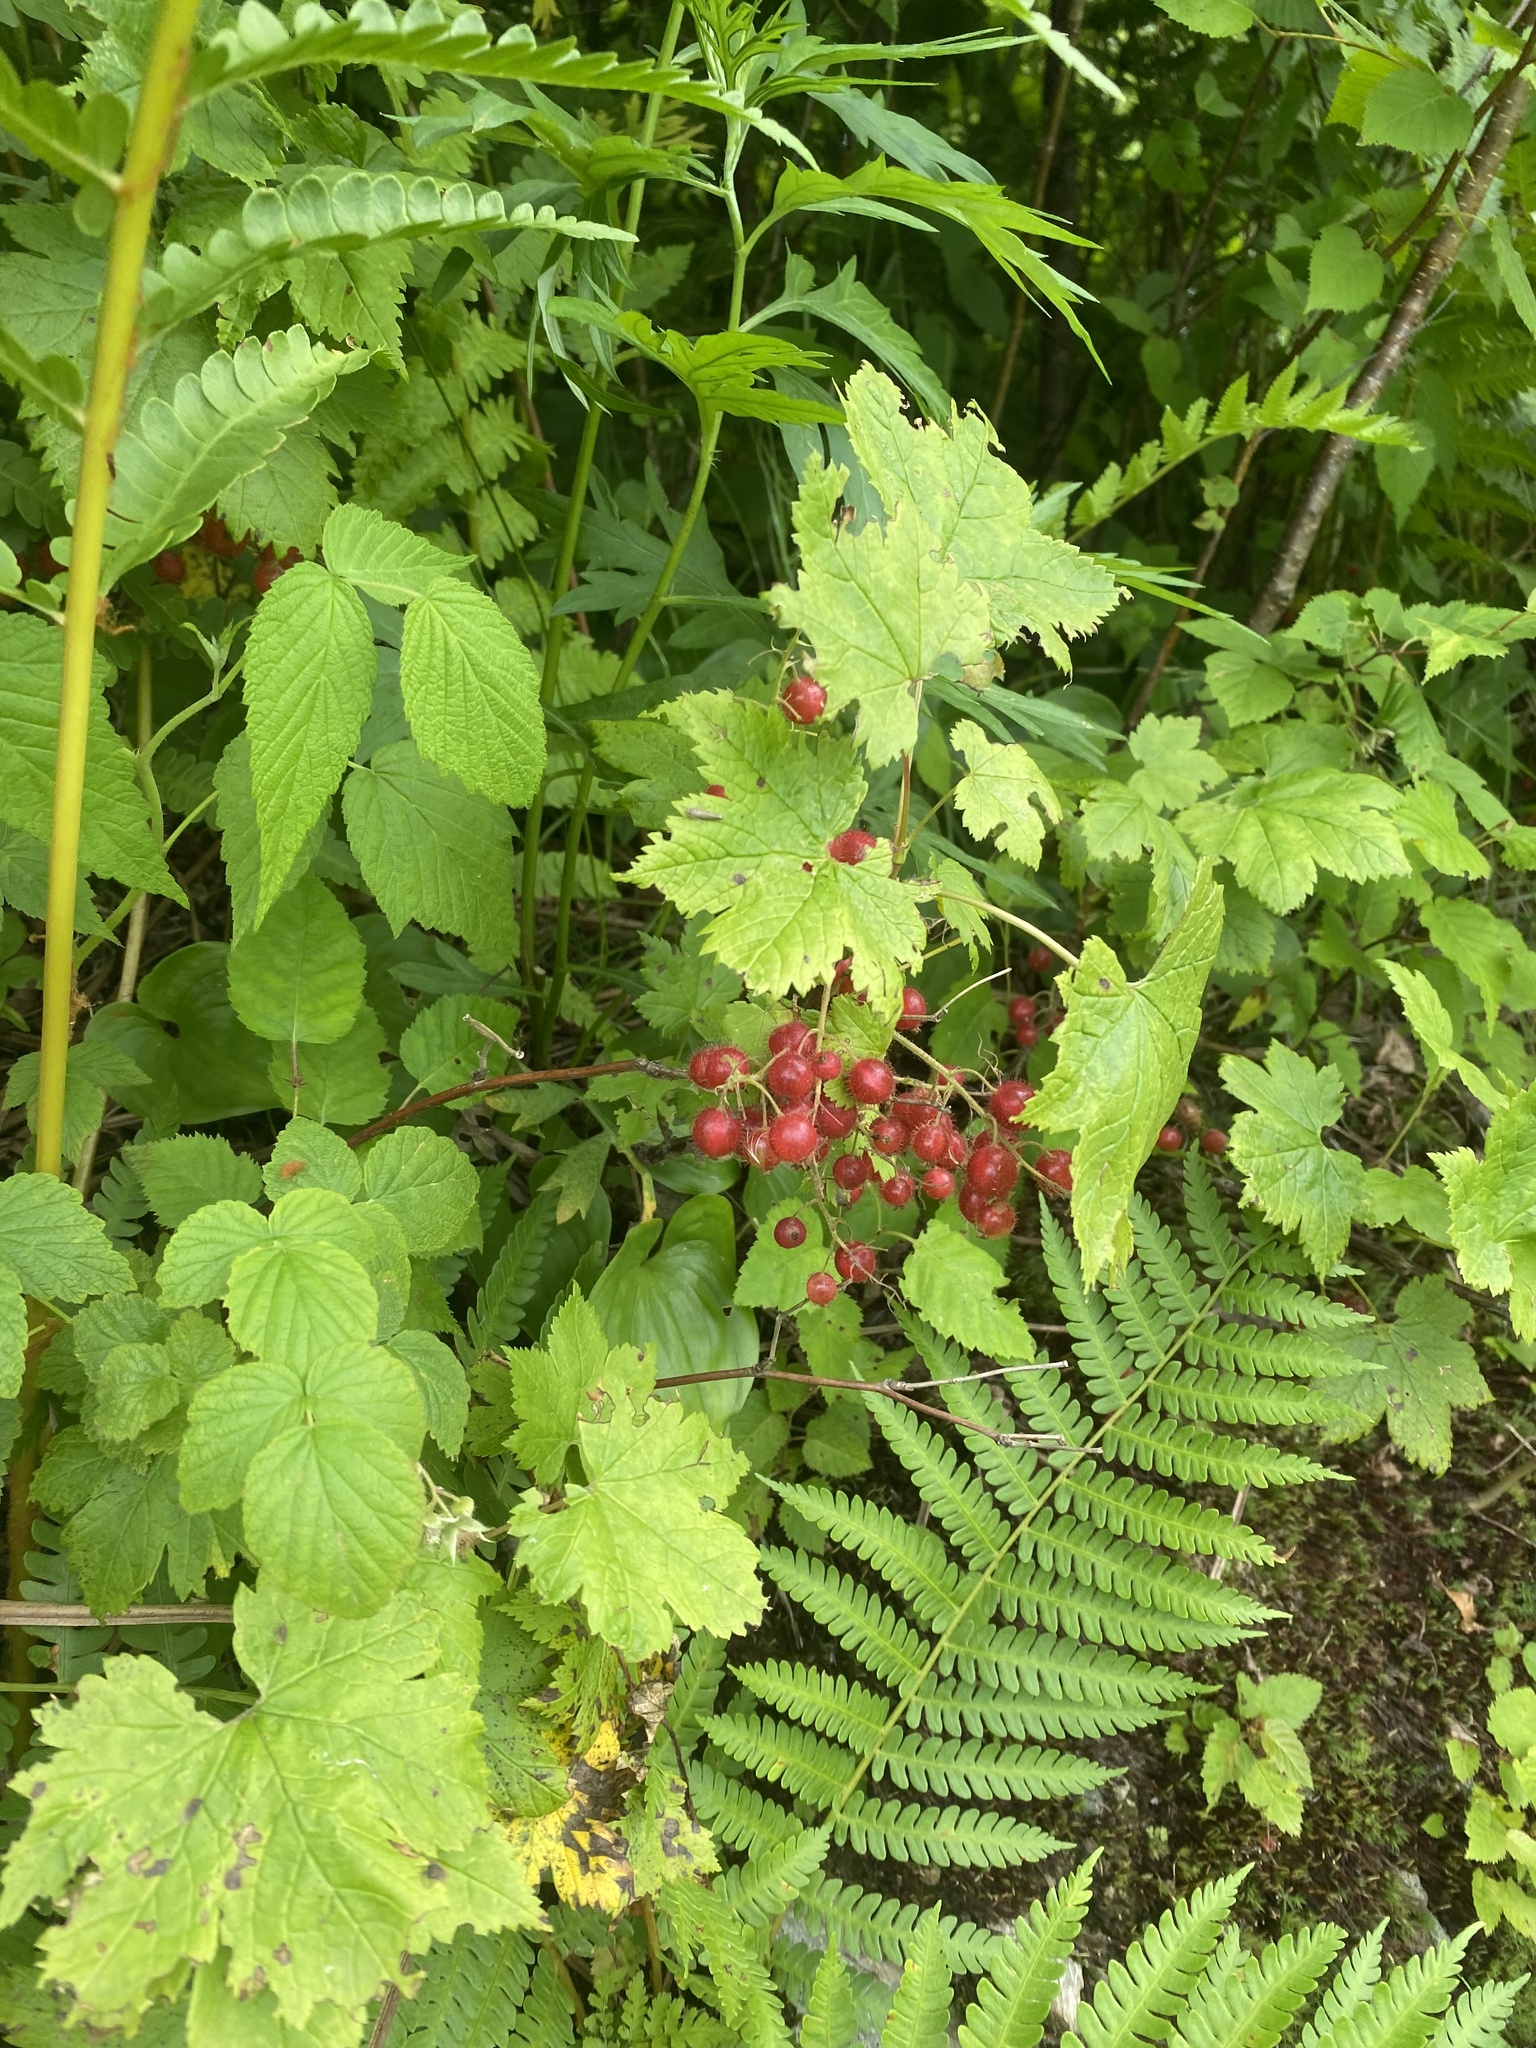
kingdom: Plantae
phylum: Tracheophyta
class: Magnoliopsida
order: Saxifragales
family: Grossulariaceae
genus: Ribes
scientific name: Ribes sachalinense
